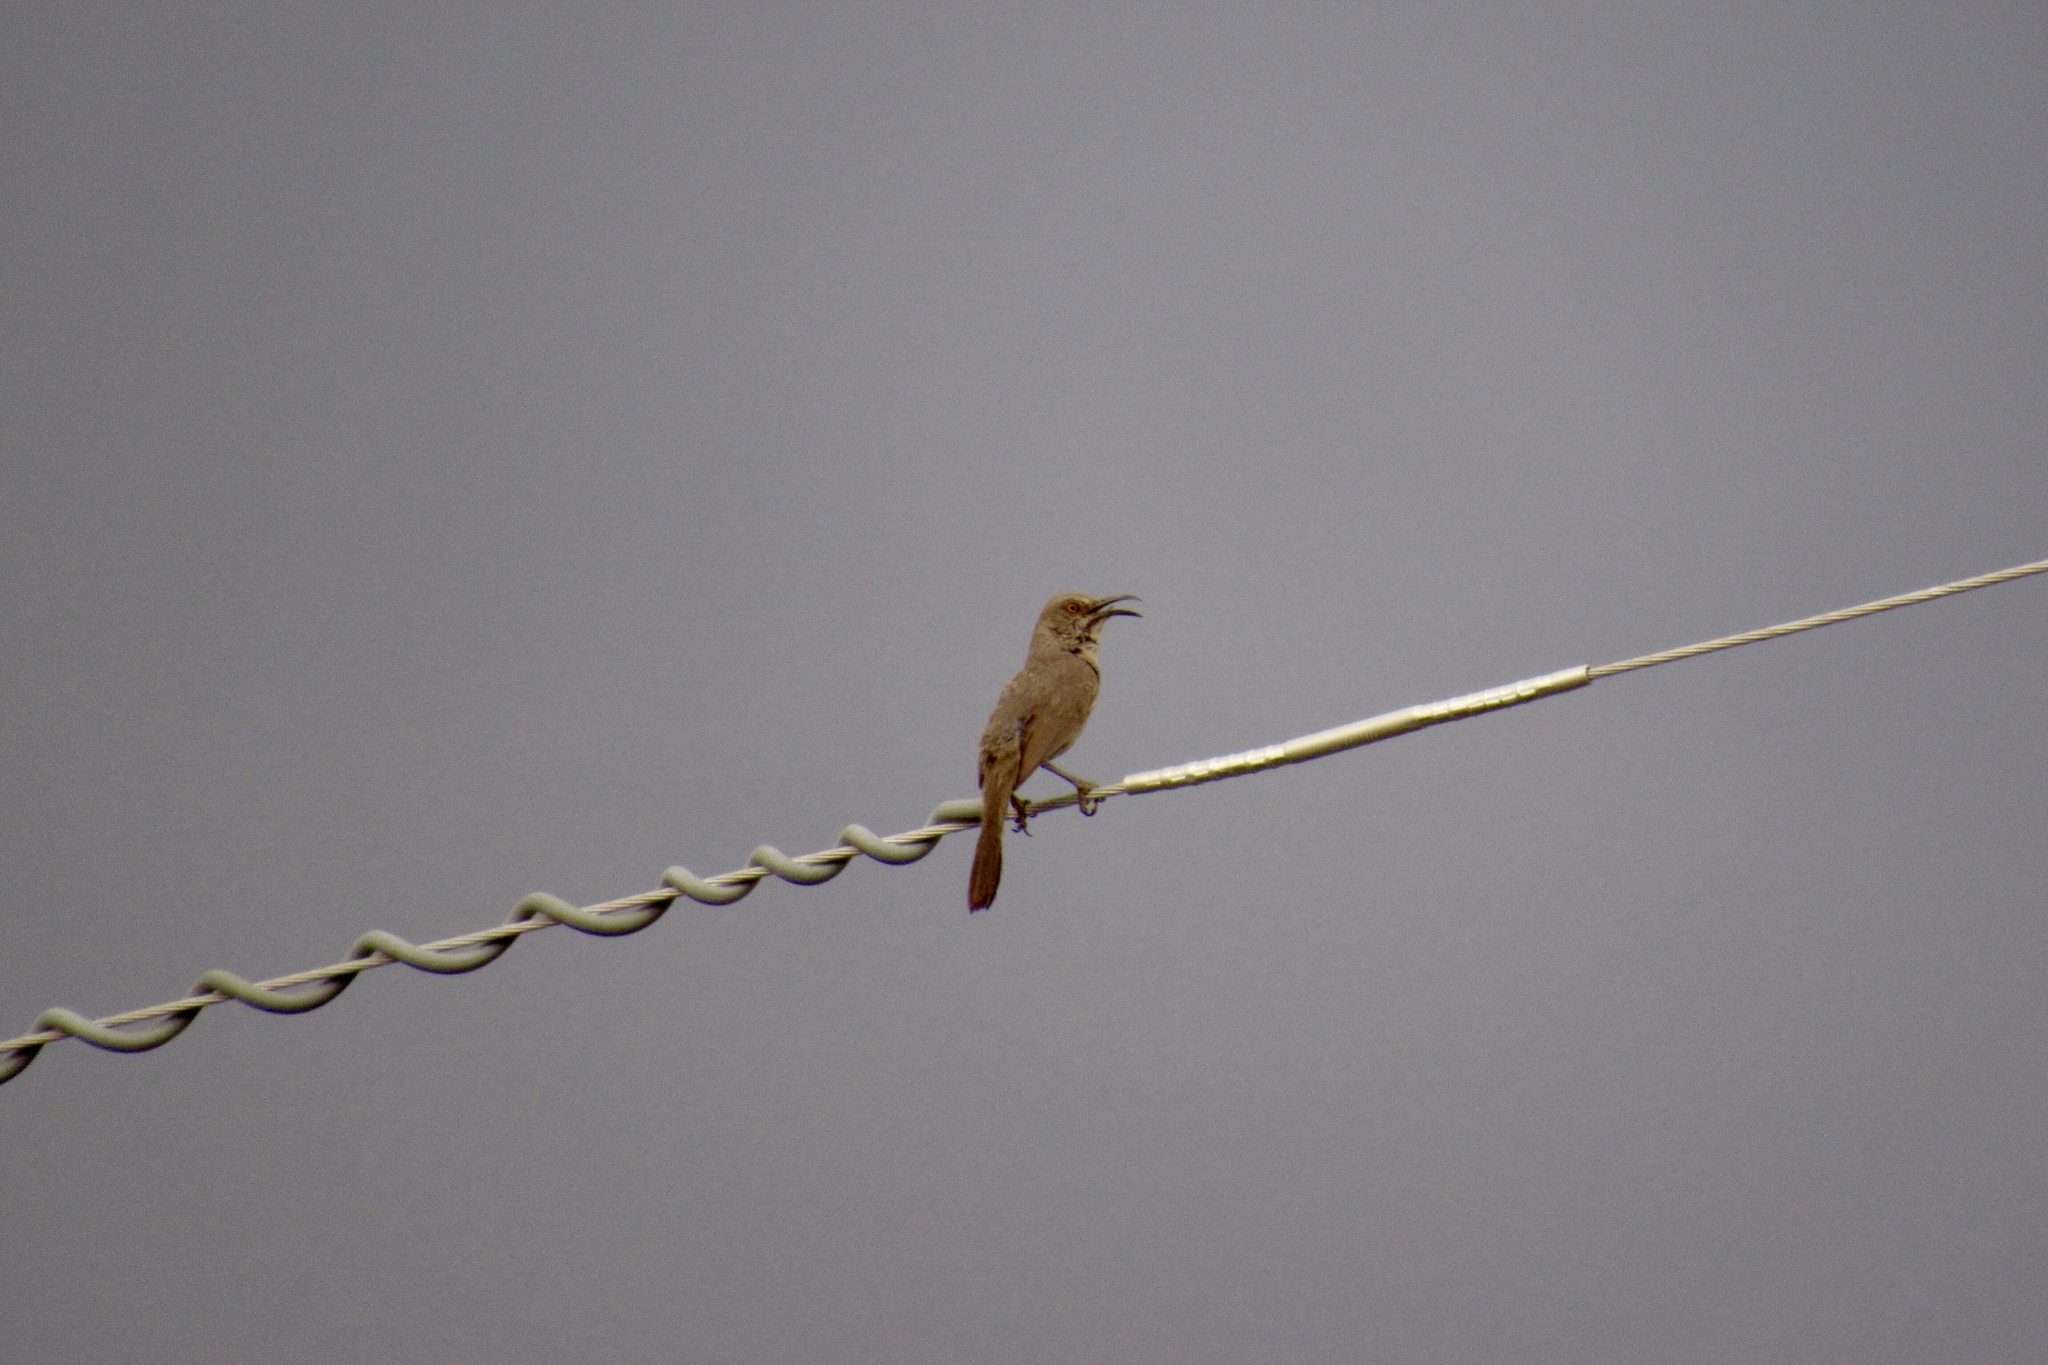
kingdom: Animalia
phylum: Chordata
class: Aves
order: Passeriformes
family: Mimidae
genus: Toxostoma
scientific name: Toxostoma curvirostre
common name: Curve-billed thrasher
